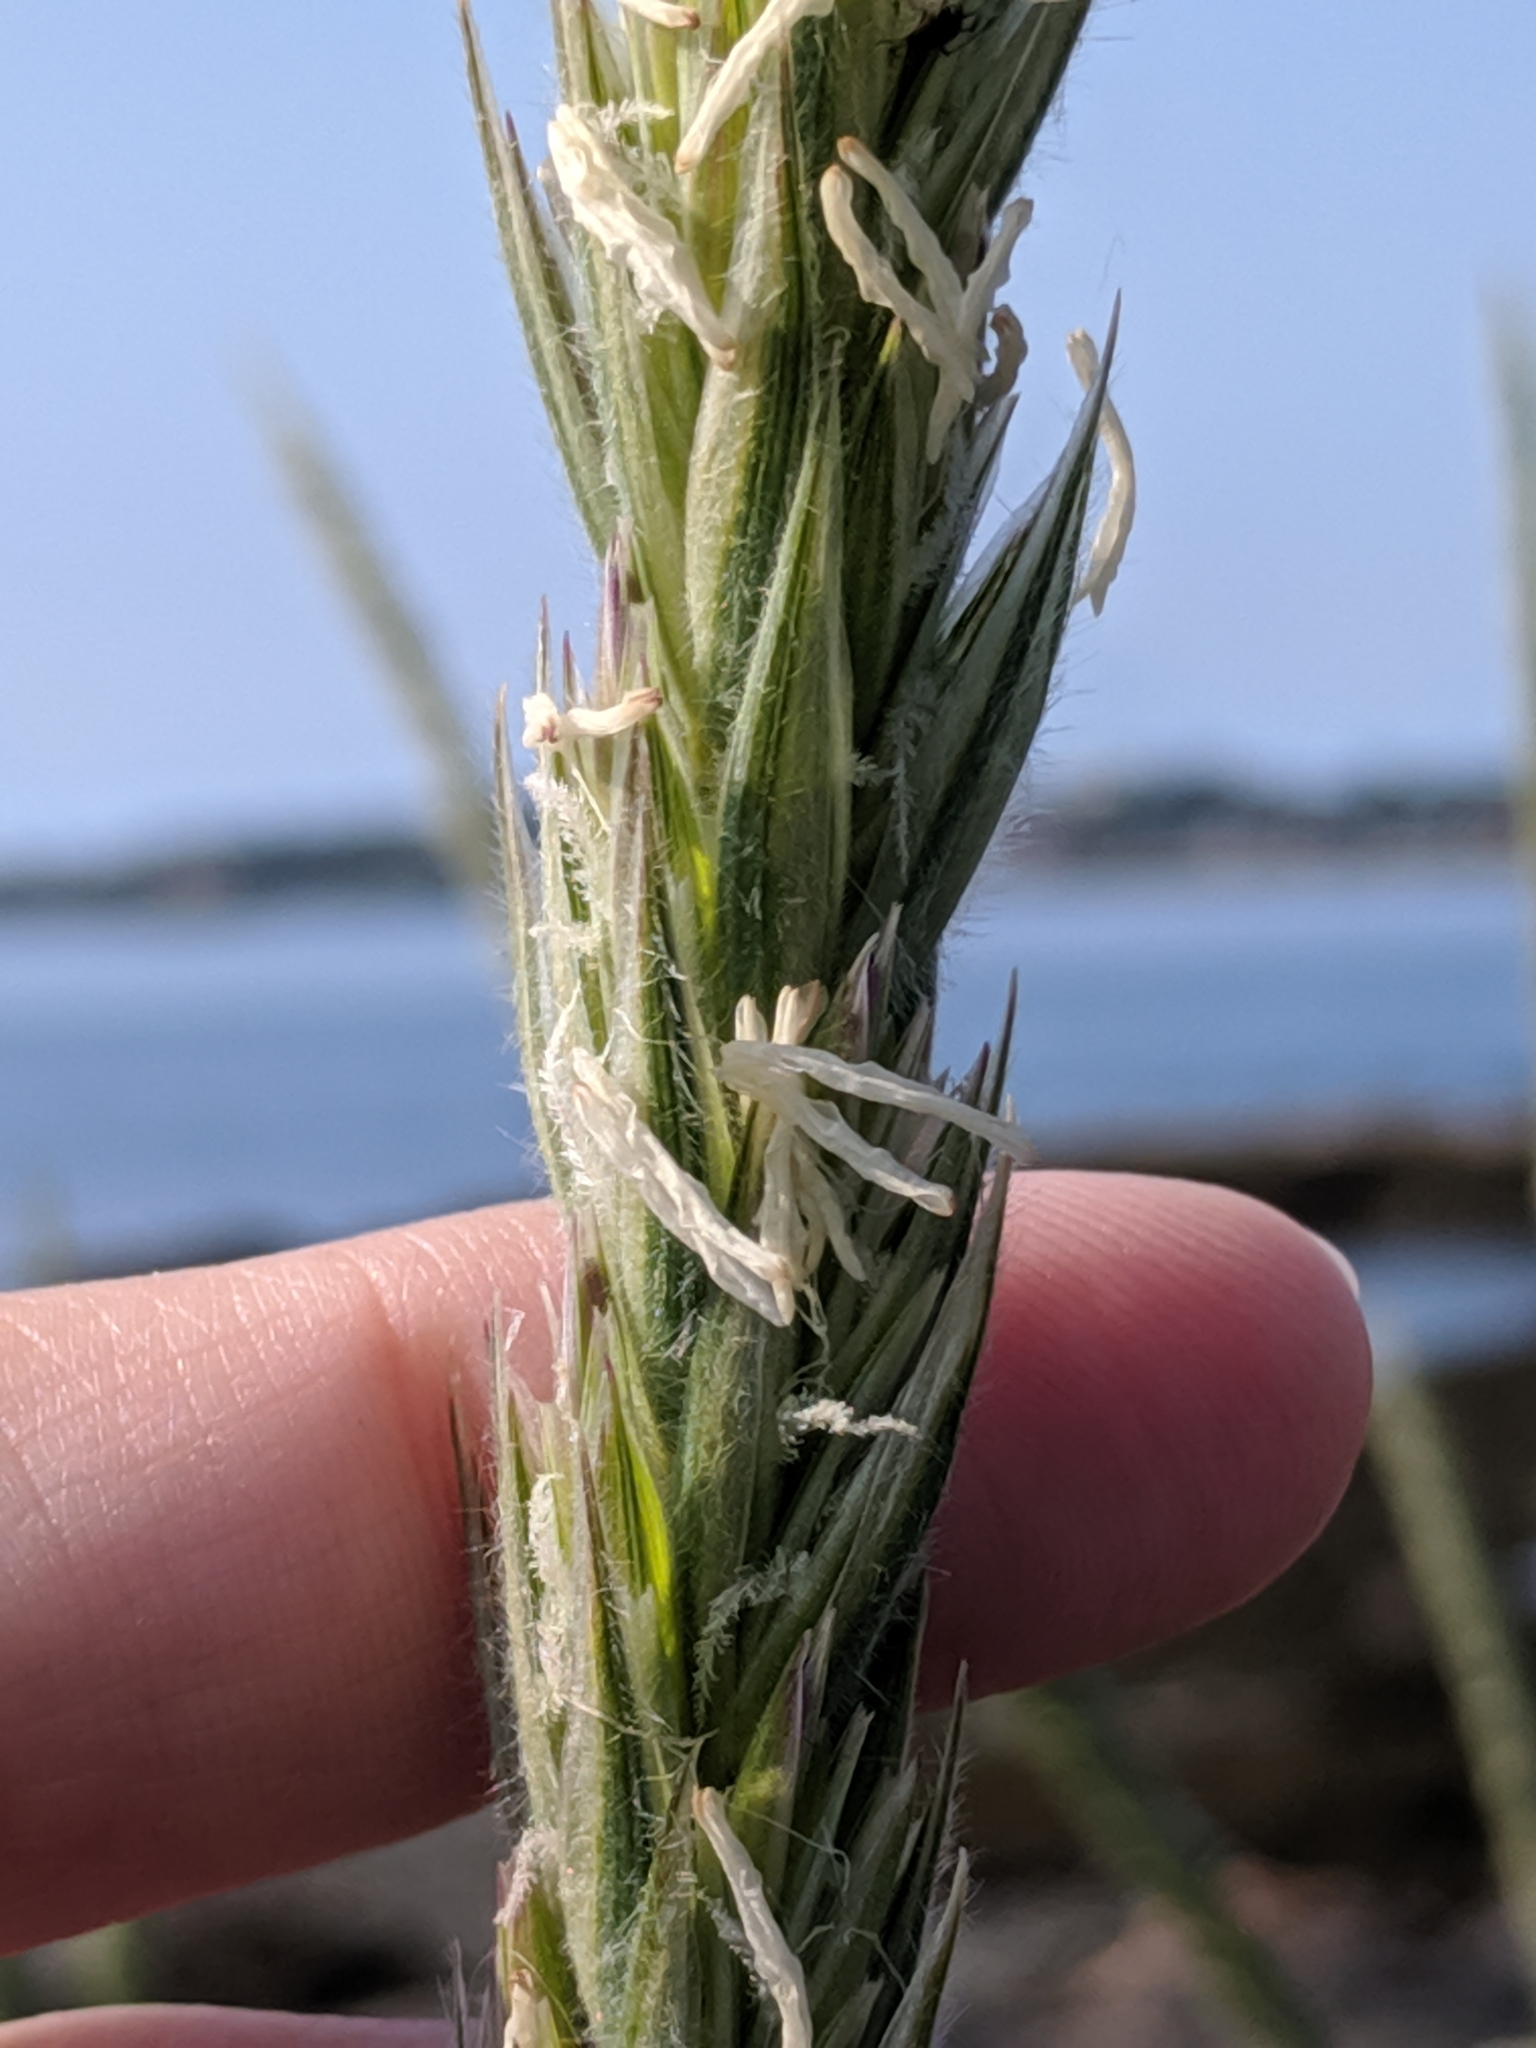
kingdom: Plantae
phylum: Tracheophyta
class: Liliopsida
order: Poales
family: Poaceae
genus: Leymus
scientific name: Leymus mollis
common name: American dune grass
